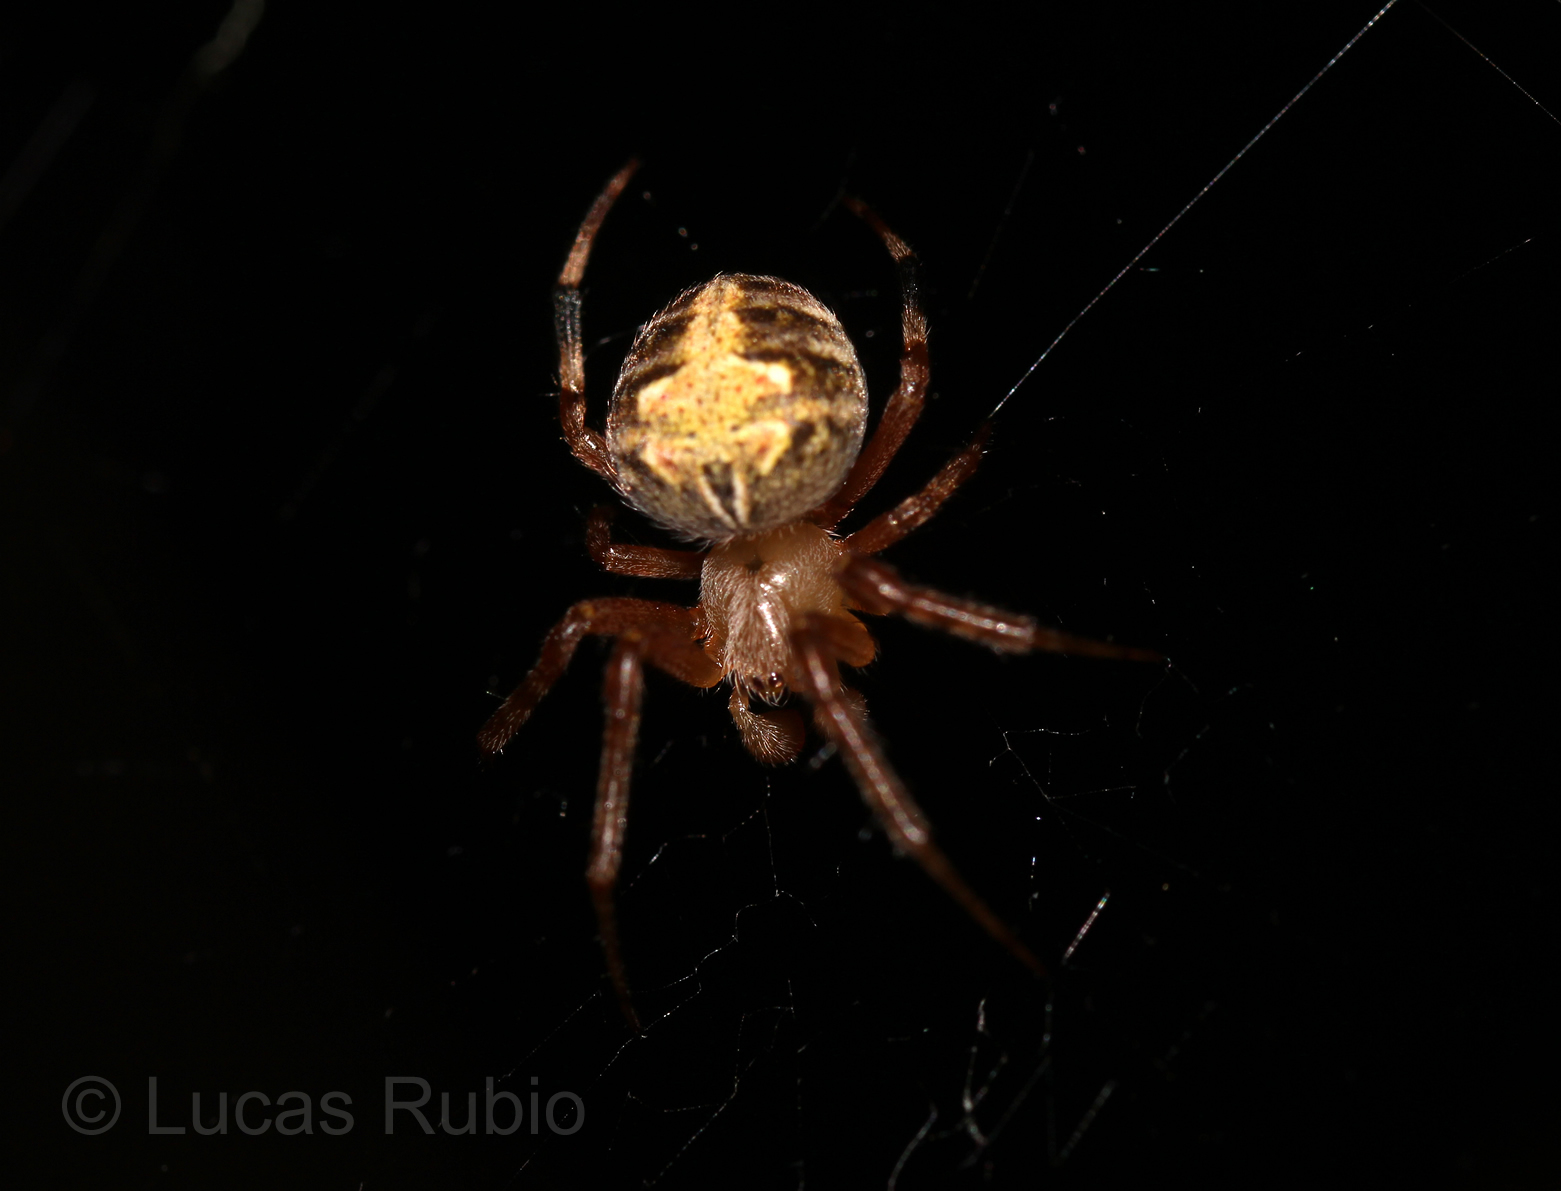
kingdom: Animalia
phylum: Arthropoda
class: Arachnida
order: Araneae
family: Araneidae
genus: Araneus
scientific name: Araneus omnicolor
